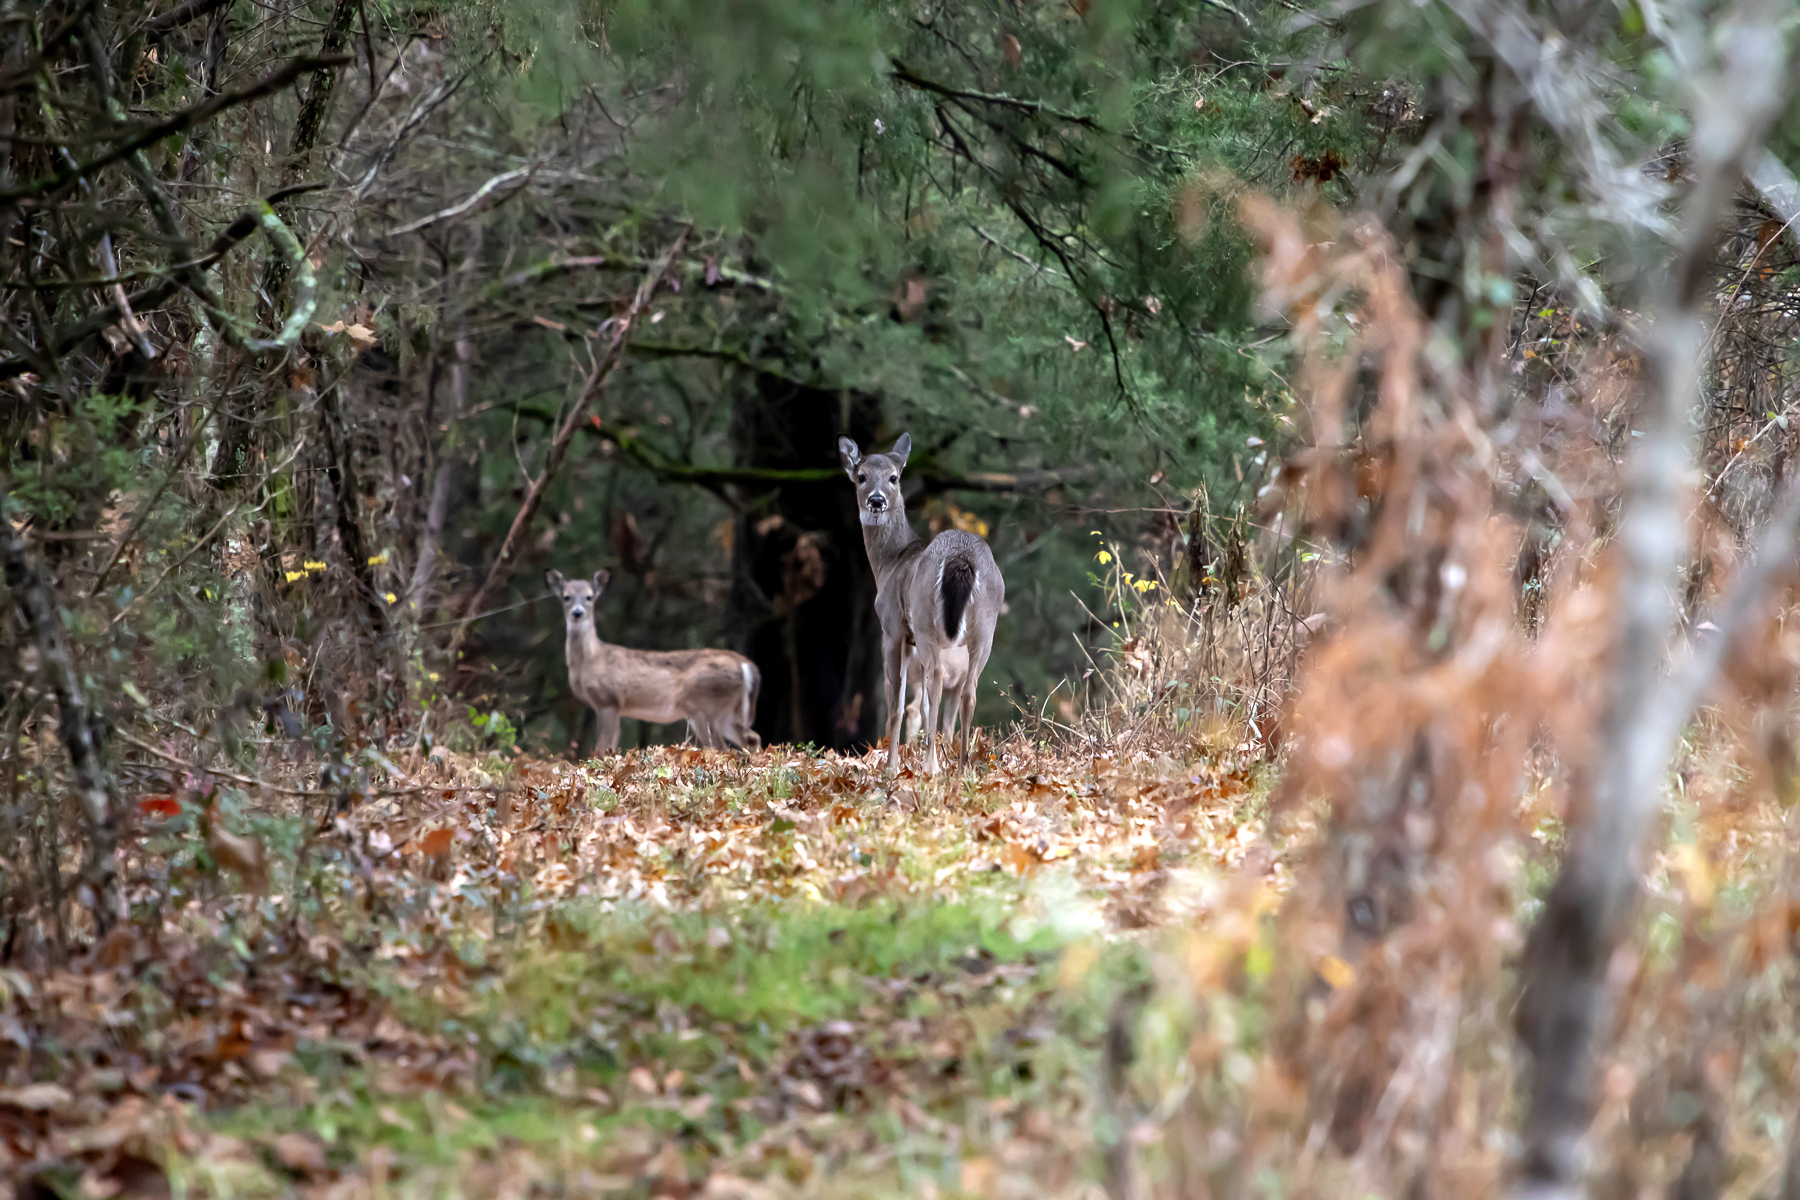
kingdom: Animalia
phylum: Chordata
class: Mammalia
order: Artiodactyla
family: Cervidae
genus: Odocoileus
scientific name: Odocoileus virginianus
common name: White-tailed deer
